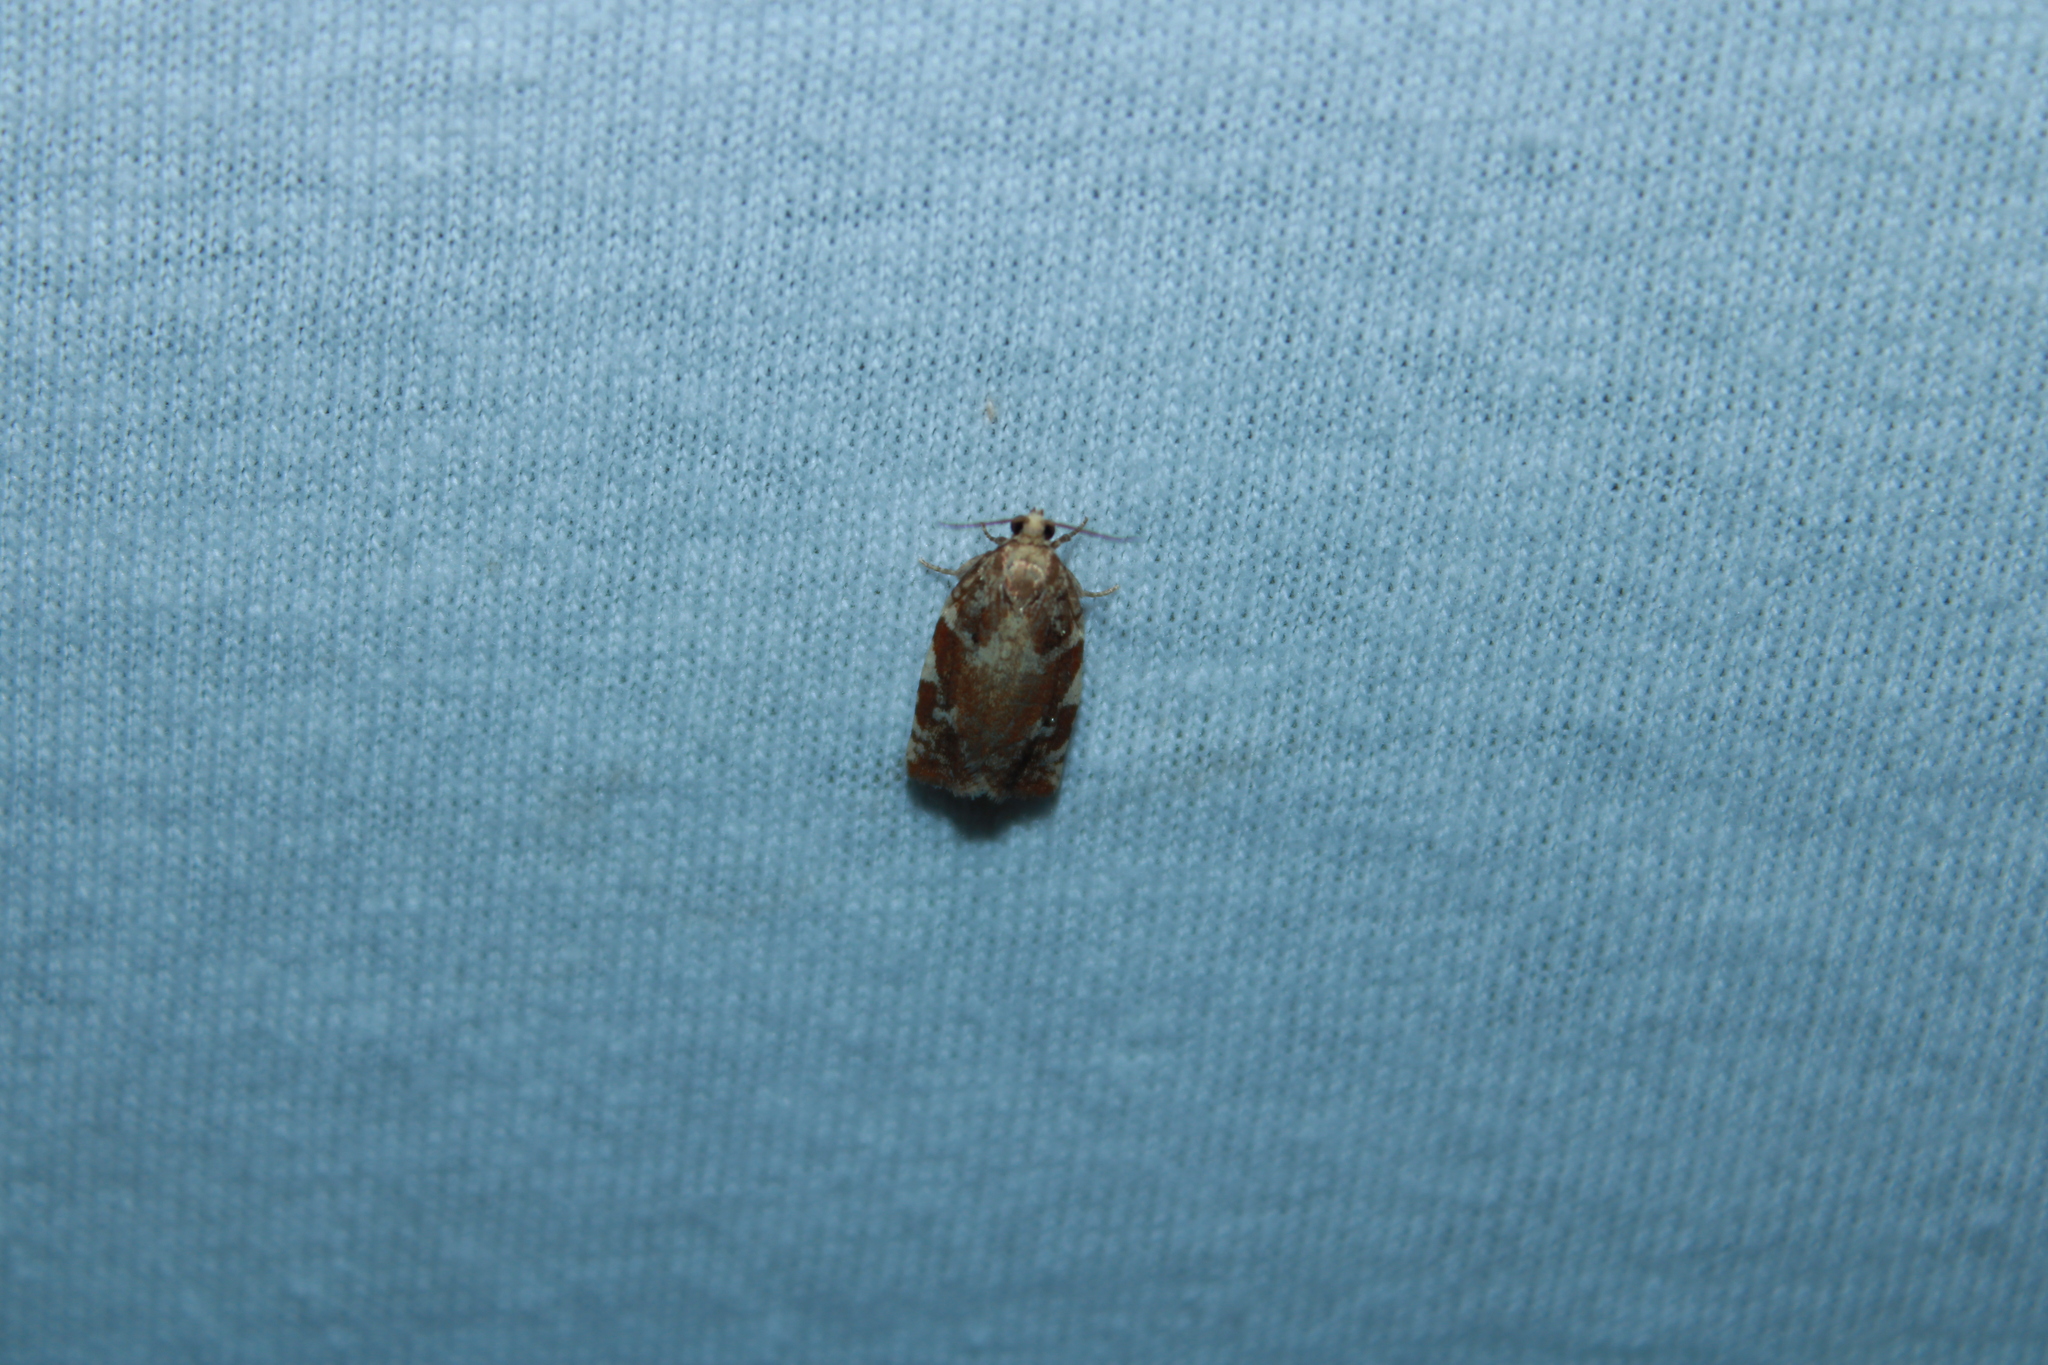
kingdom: Animalia
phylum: Arthropoda
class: Insecta
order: Lepidoptera
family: Tortricidae
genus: Archips
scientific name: Archips semiferanus
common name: Oak leafroller
